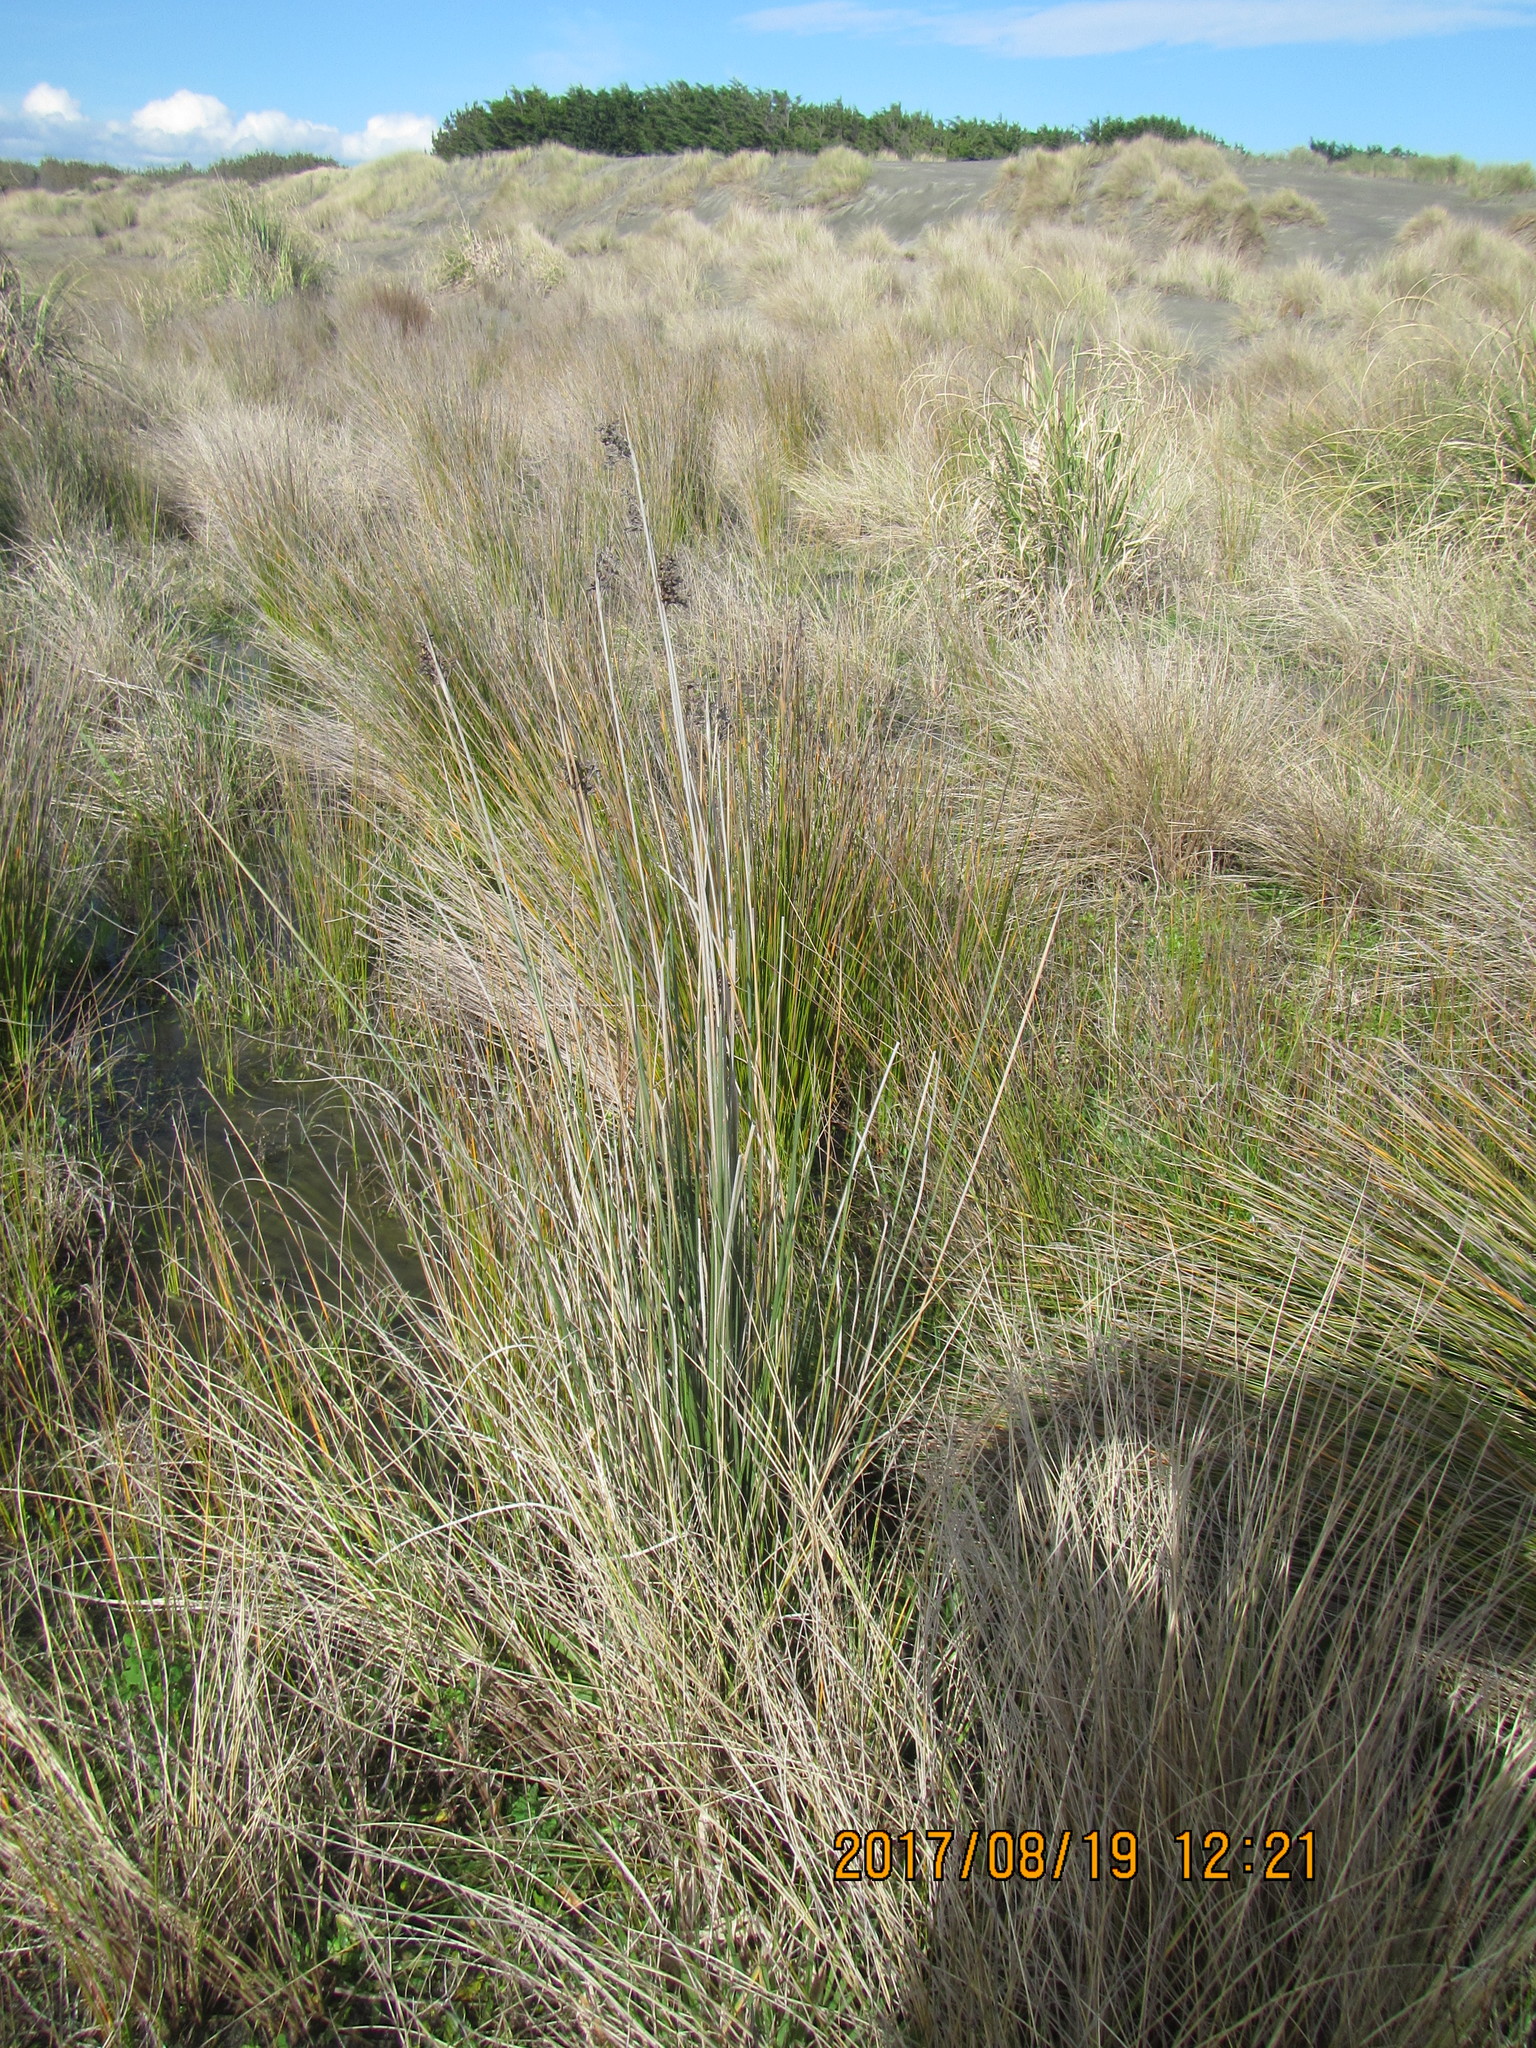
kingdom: Plantae
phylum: Tracheophyta
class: Liliopsida
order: Poales
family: Juncaceae
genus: Juncus
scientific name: Juncus acutus
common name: Sharp rush
